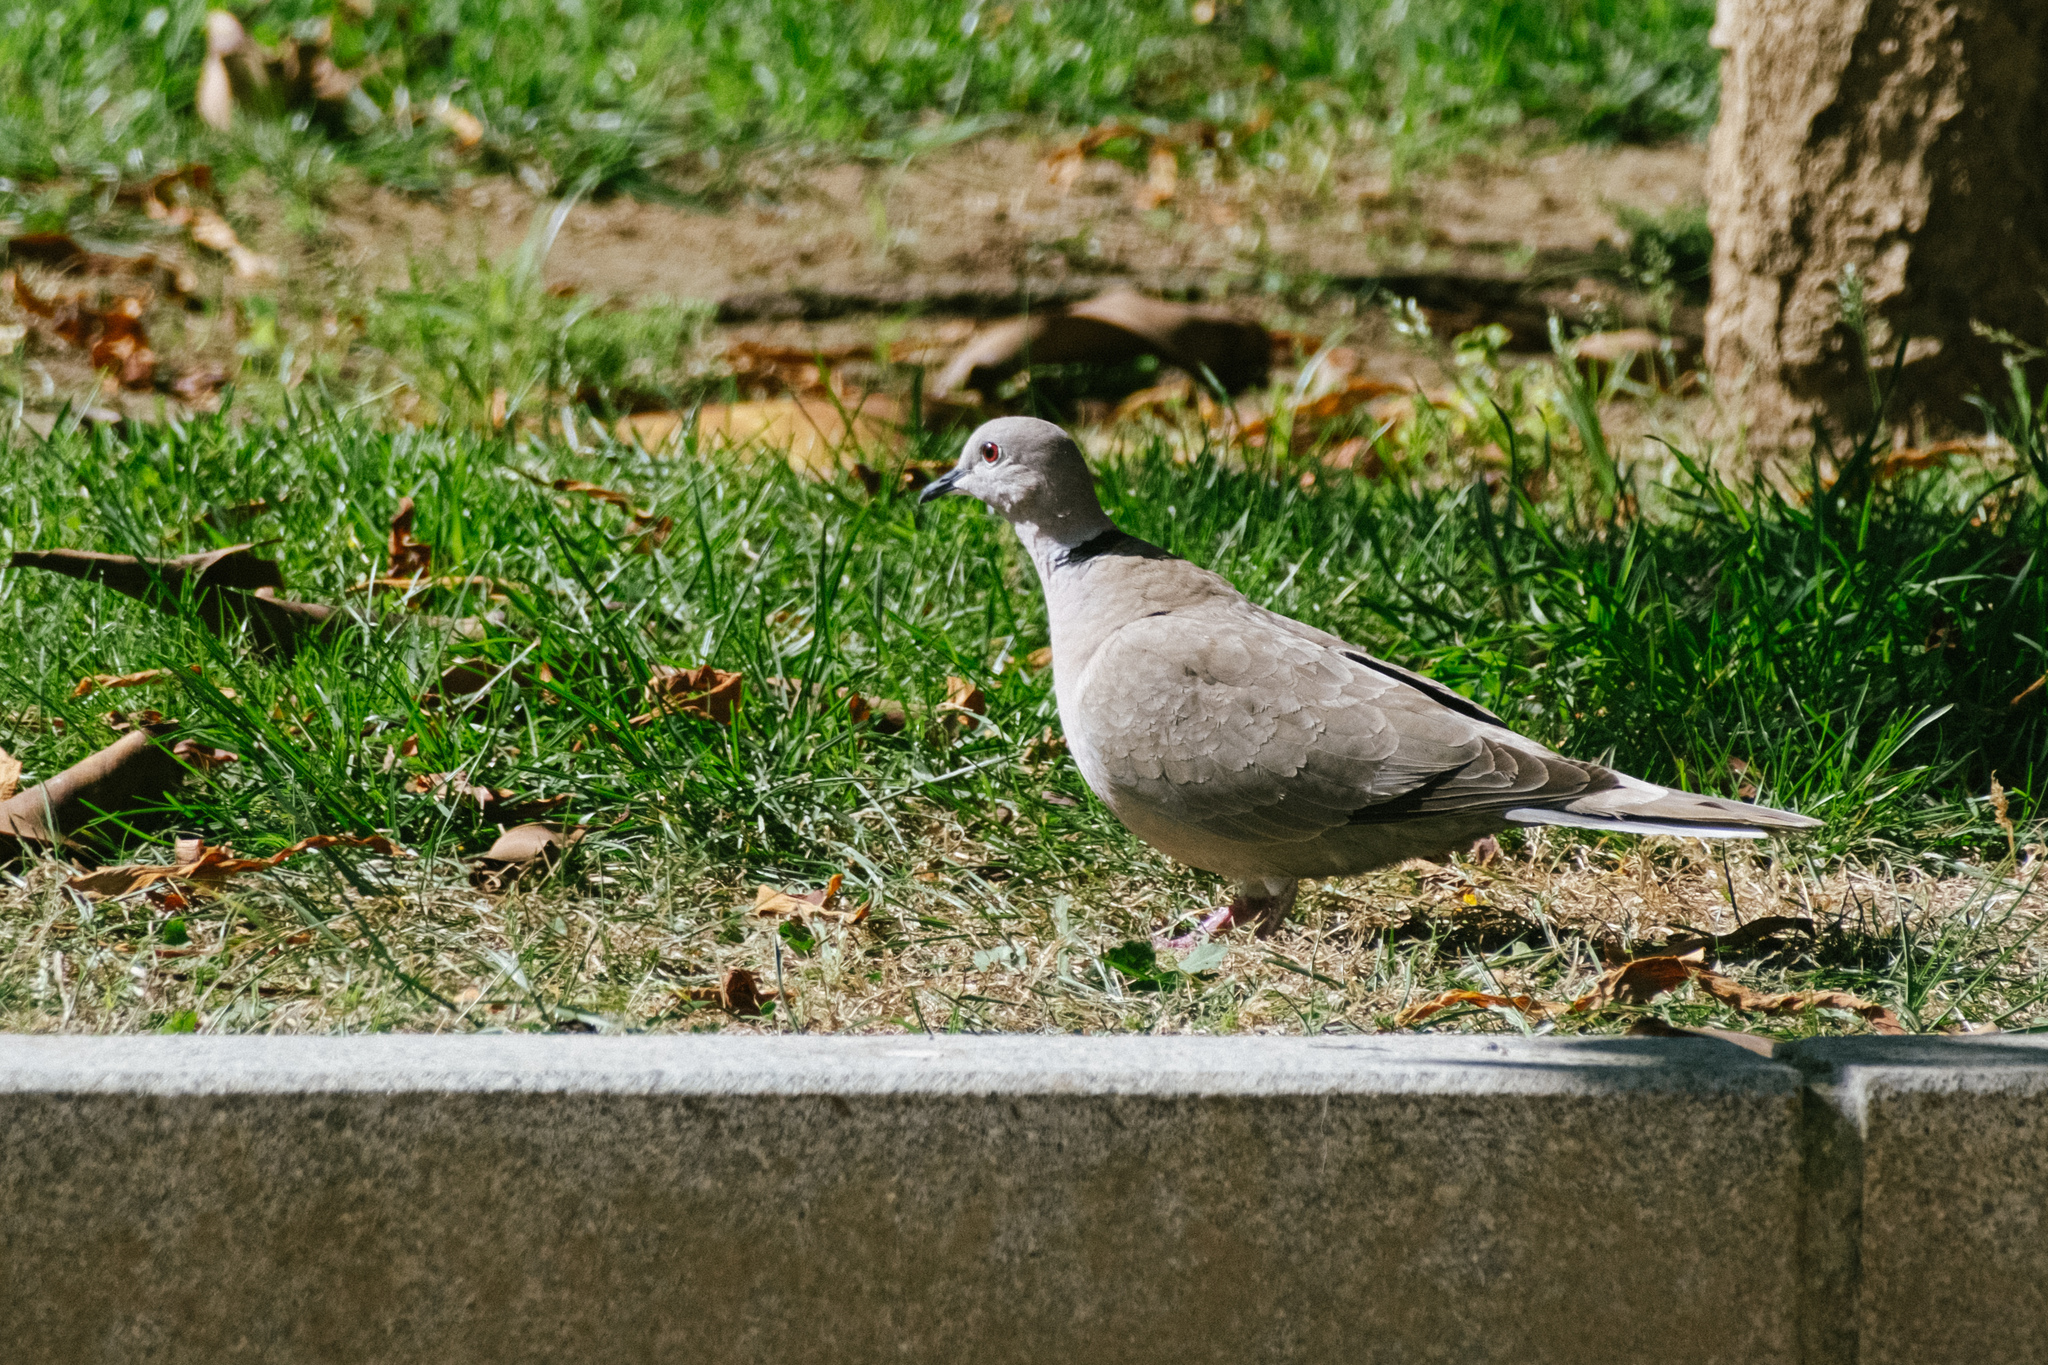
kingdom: Animalia
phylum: Chordata
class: Aves
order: Columbiformes
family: Columbidae
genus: Streptopelia
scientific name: Streptopelia decaocto
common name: Eurasian collared dove
